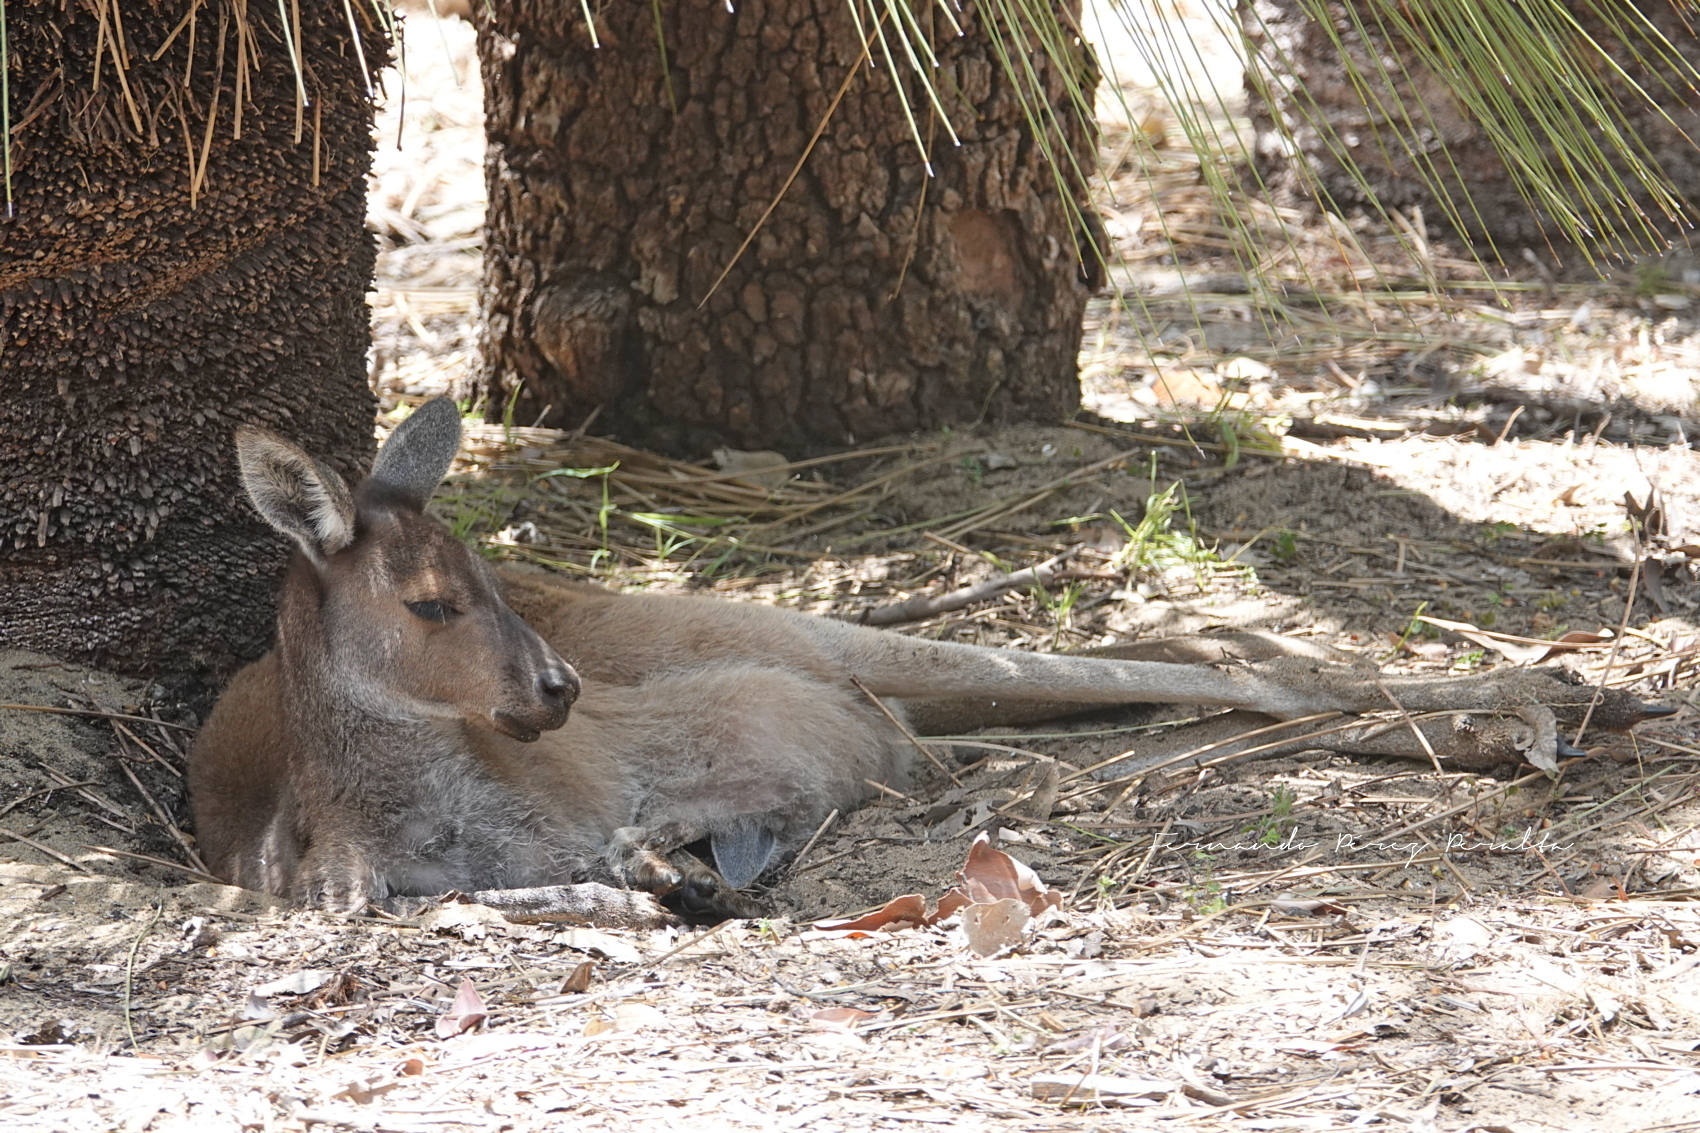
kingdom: Animalia
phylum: Chordata
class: Mammalia
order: Diprotodontia
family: Macropodidae
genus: Macropus
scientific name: Macropus fuliginosus
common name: Western grey kangaroo
